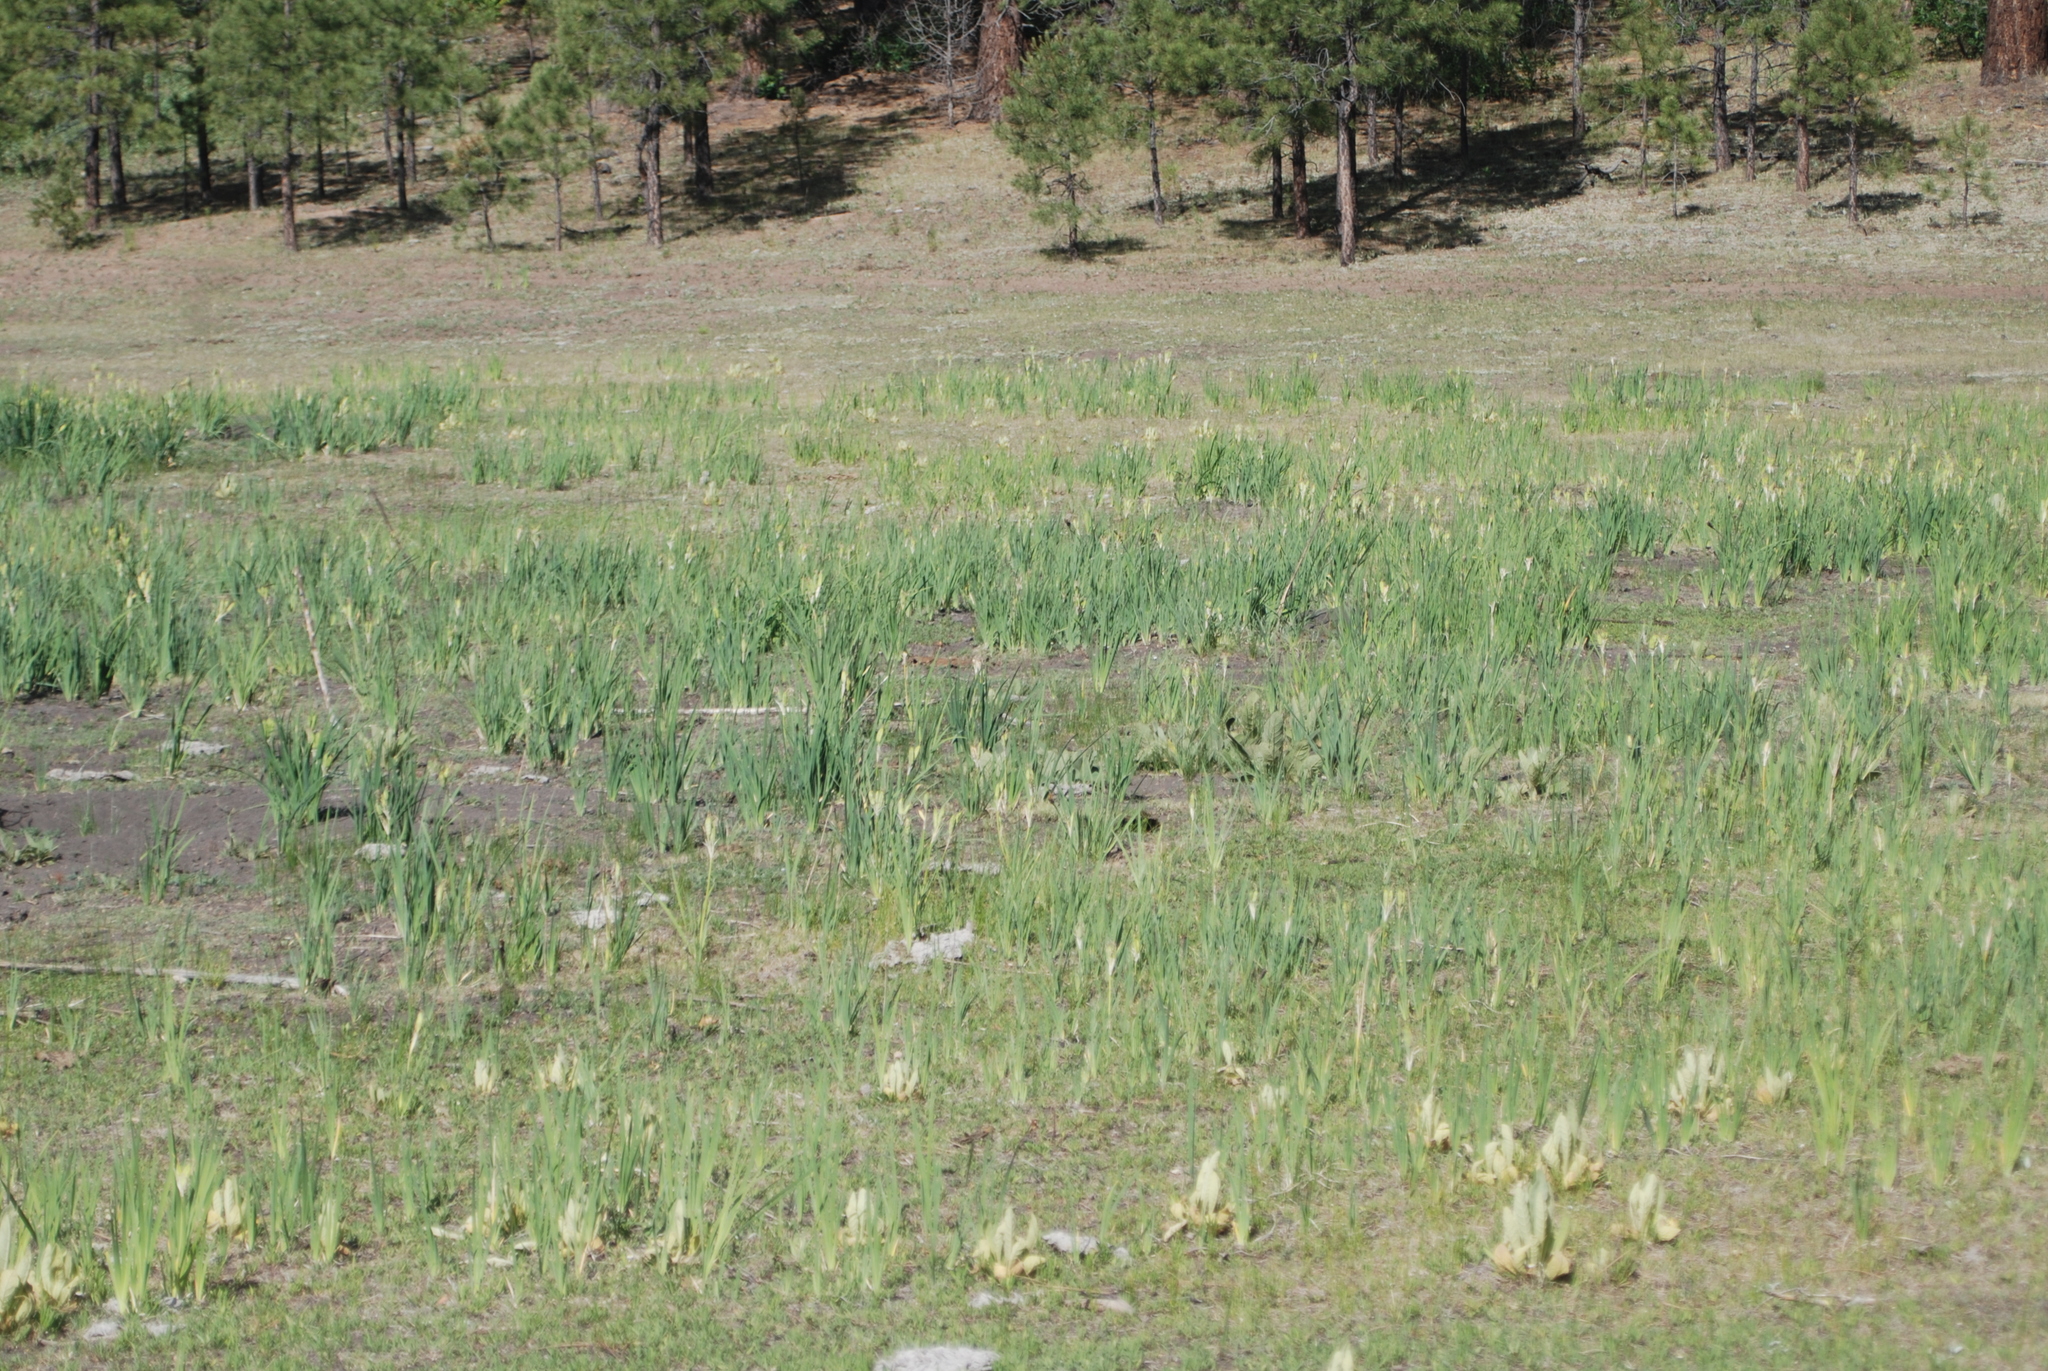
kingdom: Plantae
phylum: Tracheophyta
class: Liliopsida
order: Asparagales
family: Iridaceae
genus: Iris
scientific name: Iris missouriensis
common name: Rocky mountain iris
